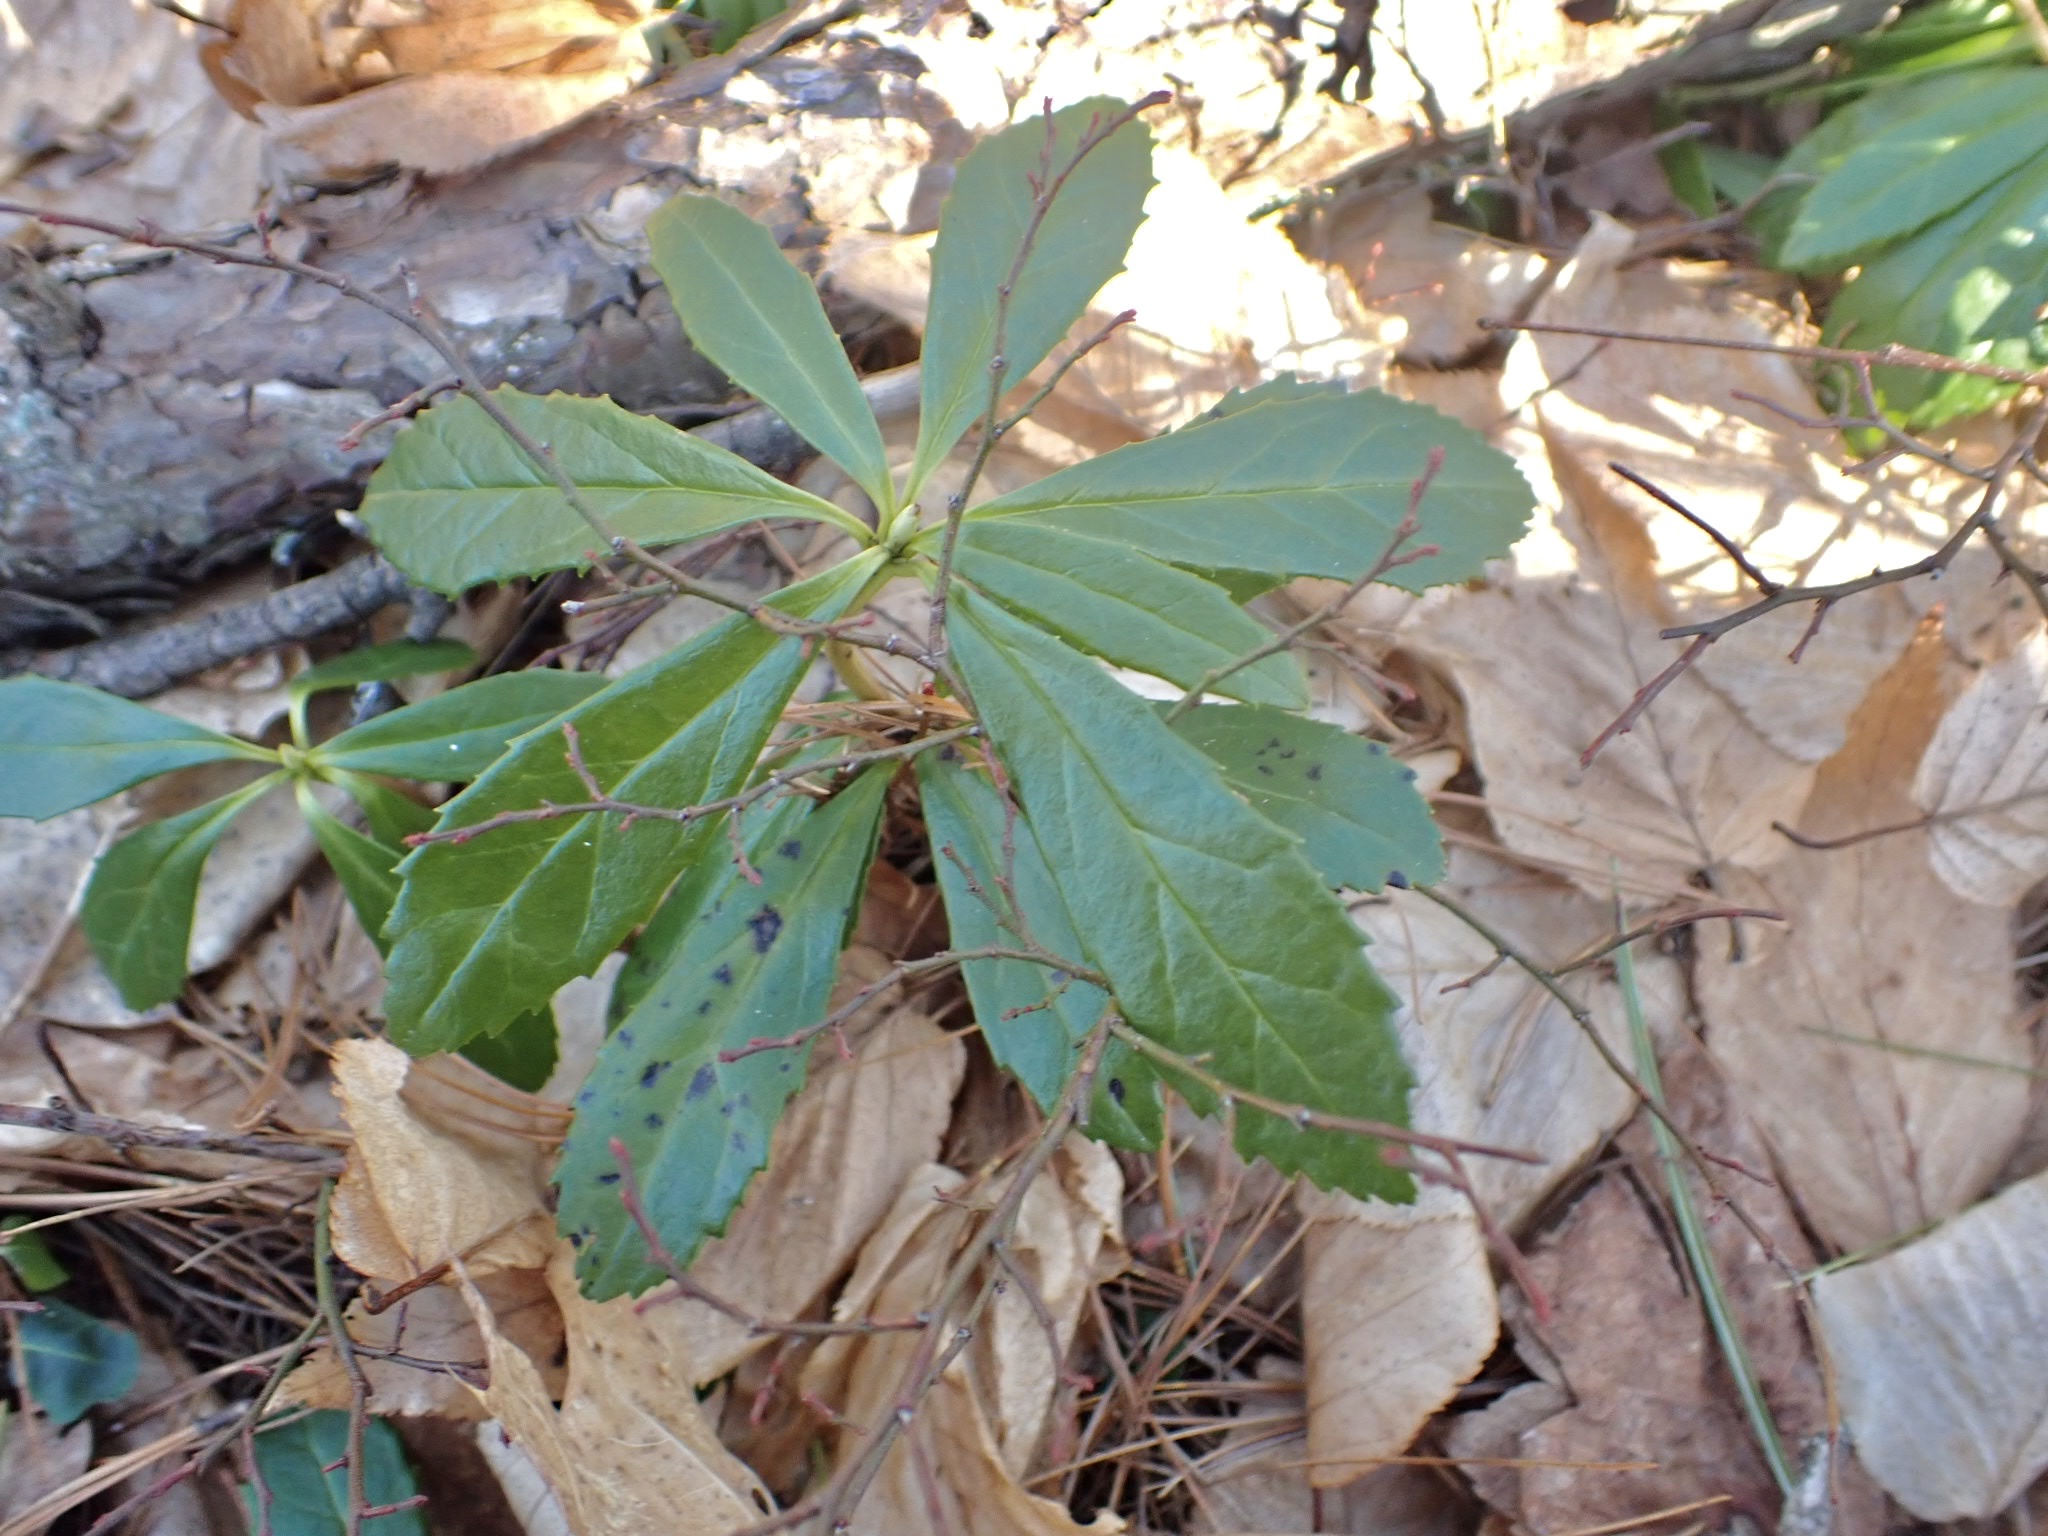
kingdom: Plantae
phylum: Tracheophyta
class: Magnoliopsida
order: Ericales
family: Ericaceae
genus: Chimaphila
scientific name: Chimaphila umbellata
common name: Pipsissewa
